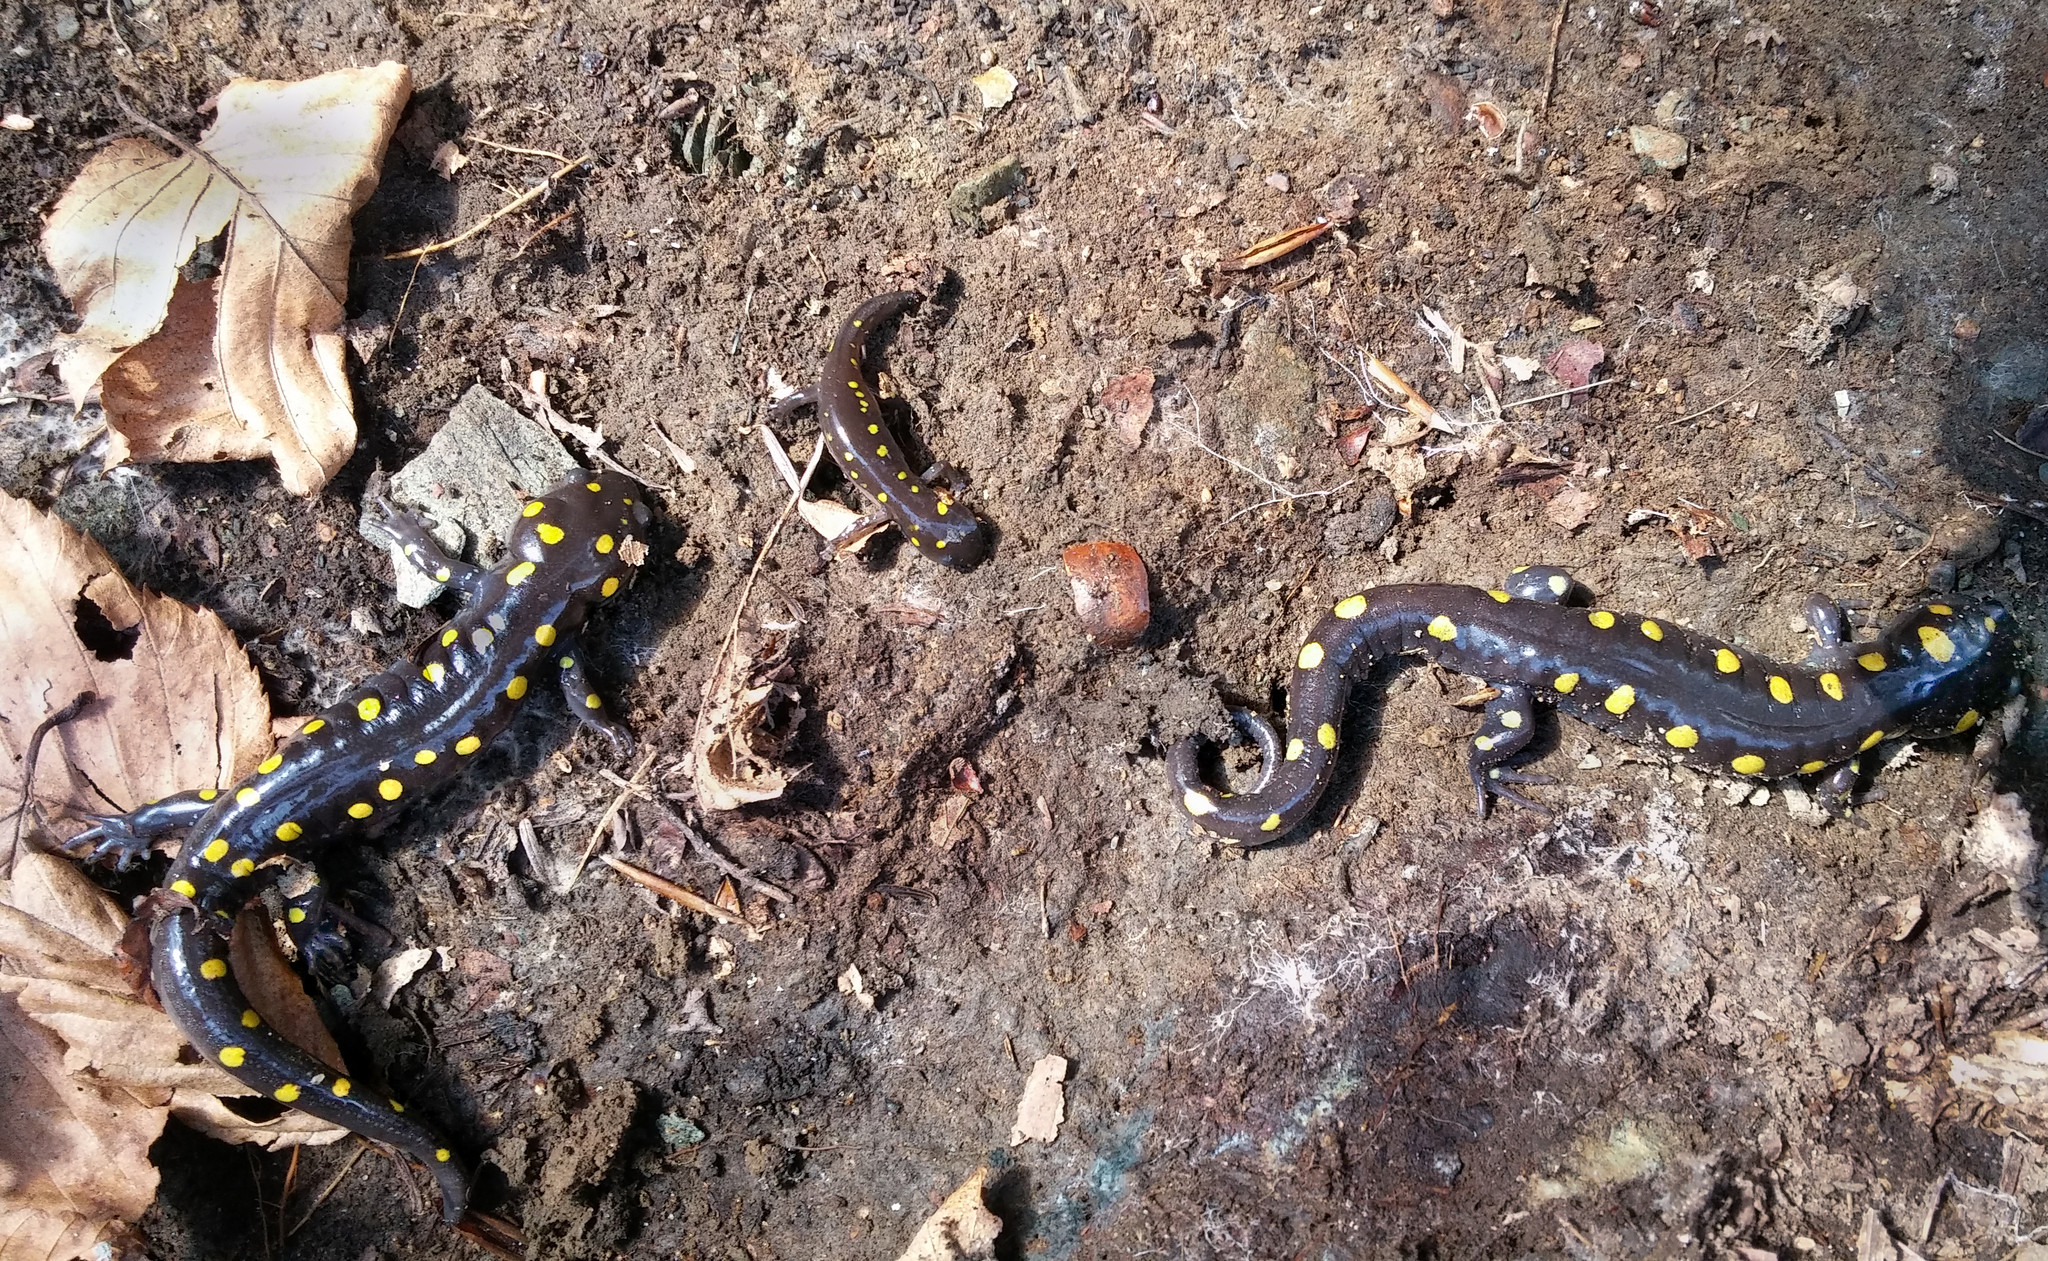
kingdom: Animalia
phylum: Chordata
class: Amphibia
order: Caudata
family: Ambystomatidae
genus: Ambystoma
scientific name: Ambystoma maculatum
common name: Spotted salamander
